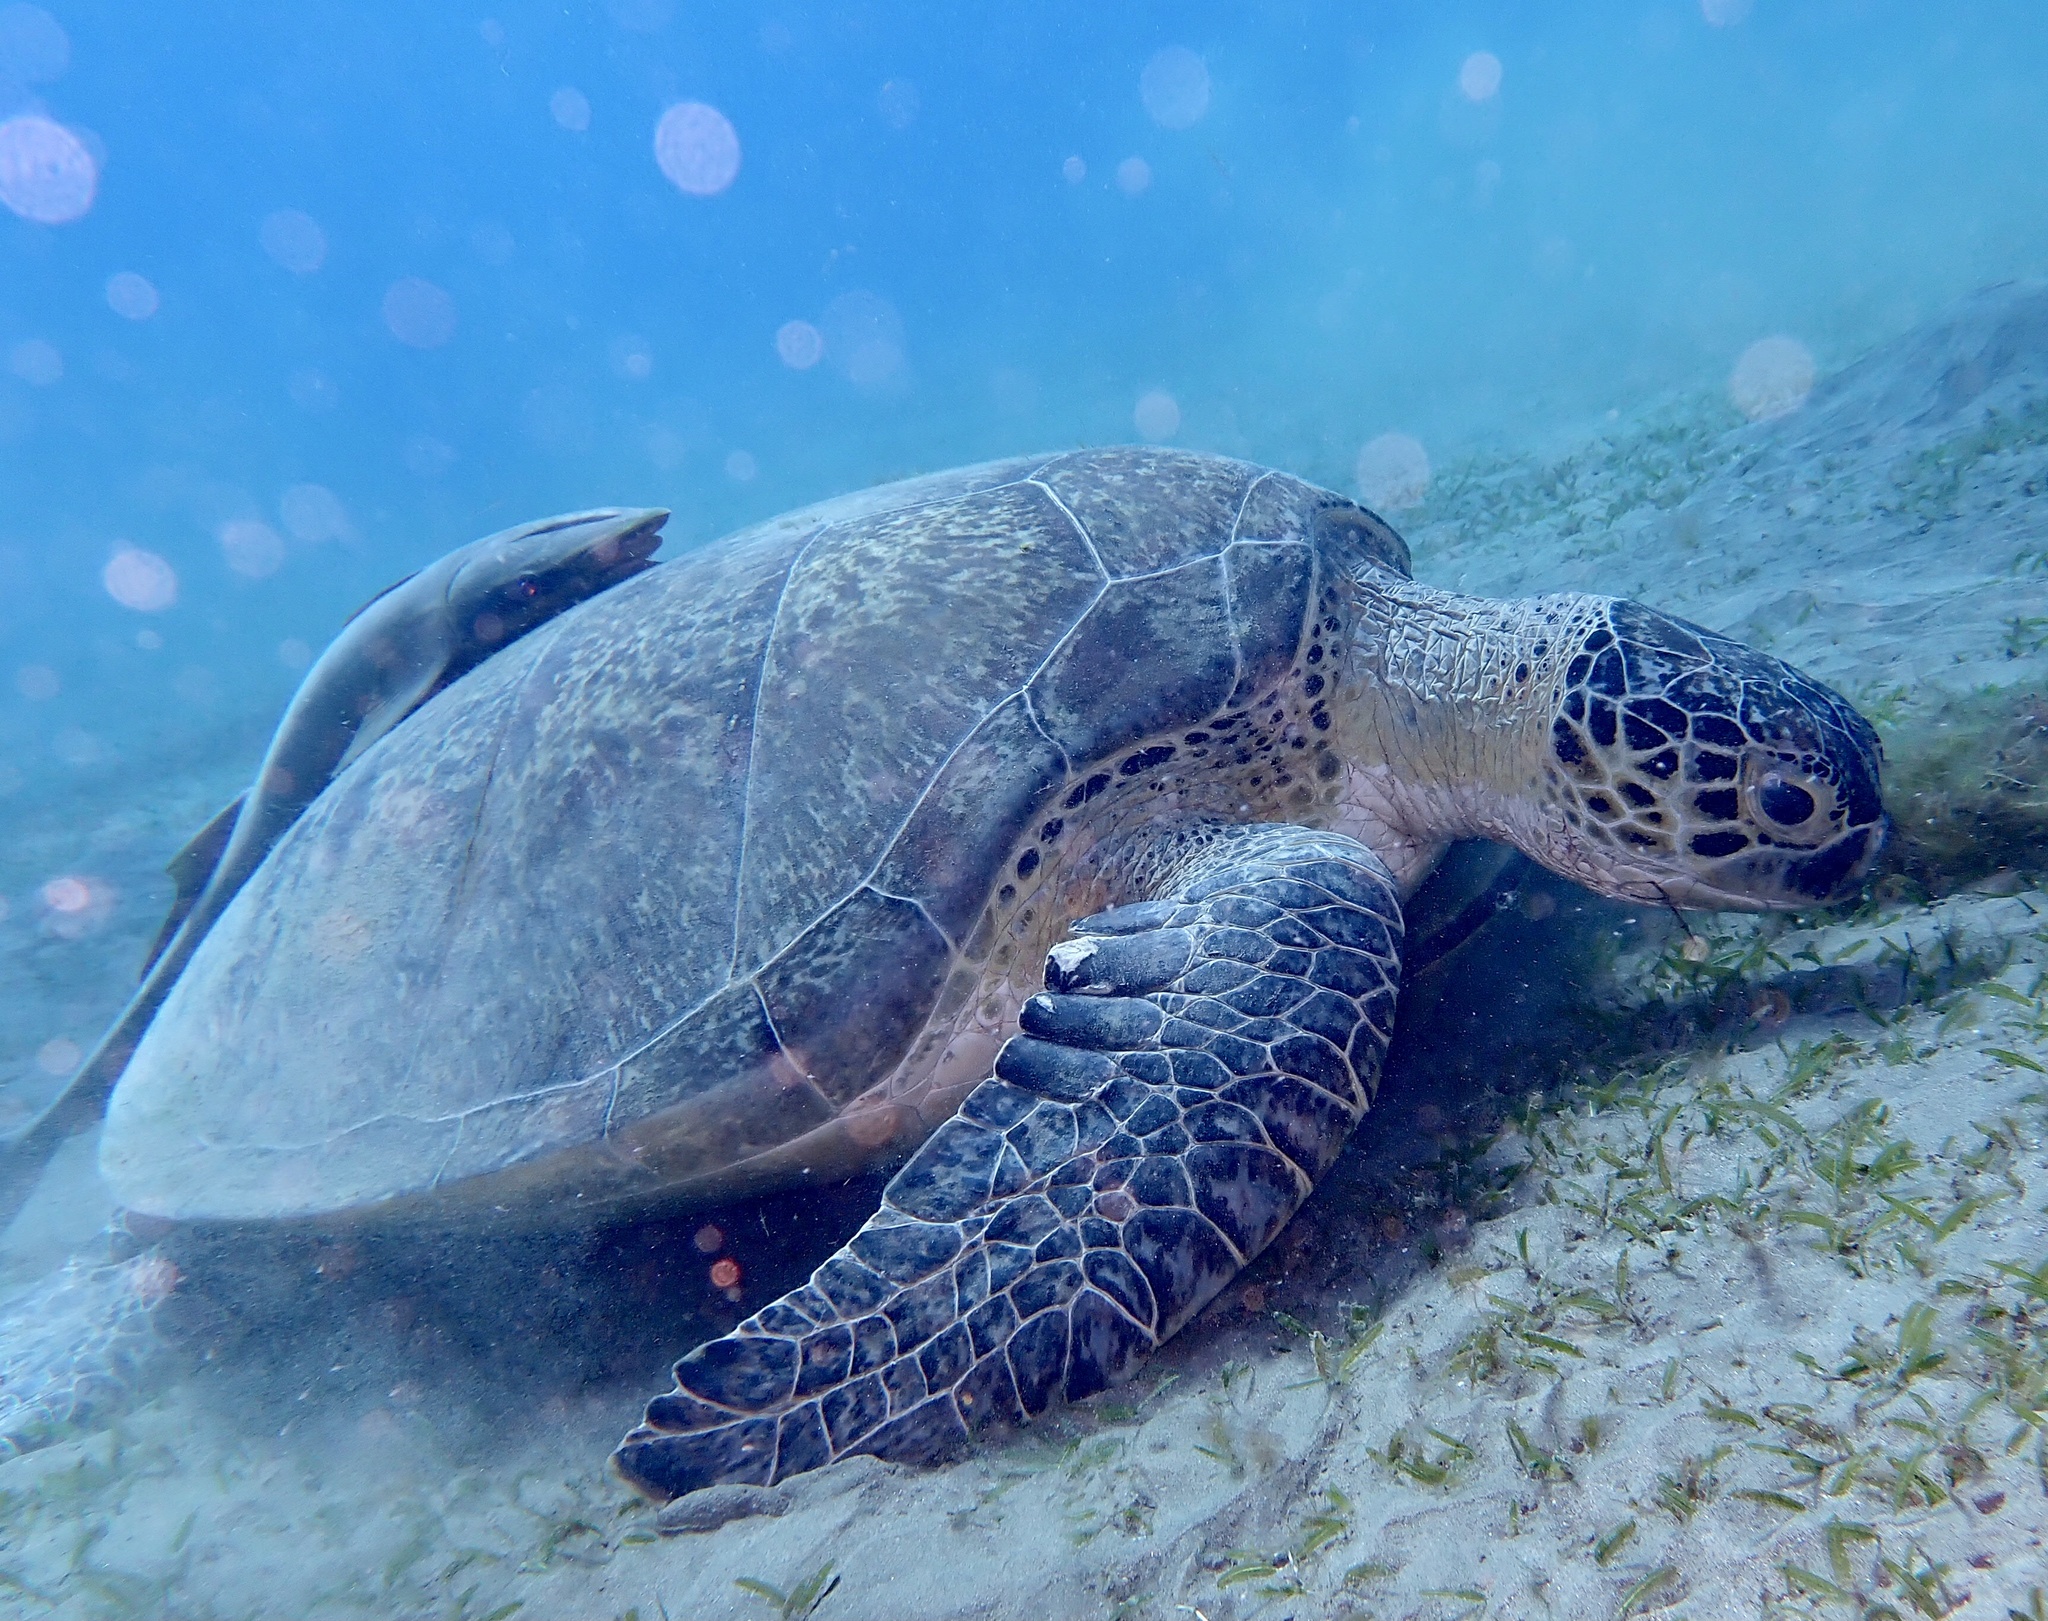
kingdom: Animalia
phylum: Chordata
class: Testudines
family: Cheloniidae
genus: Chelonia
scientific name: Chelonia mydas
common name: Green turtle
